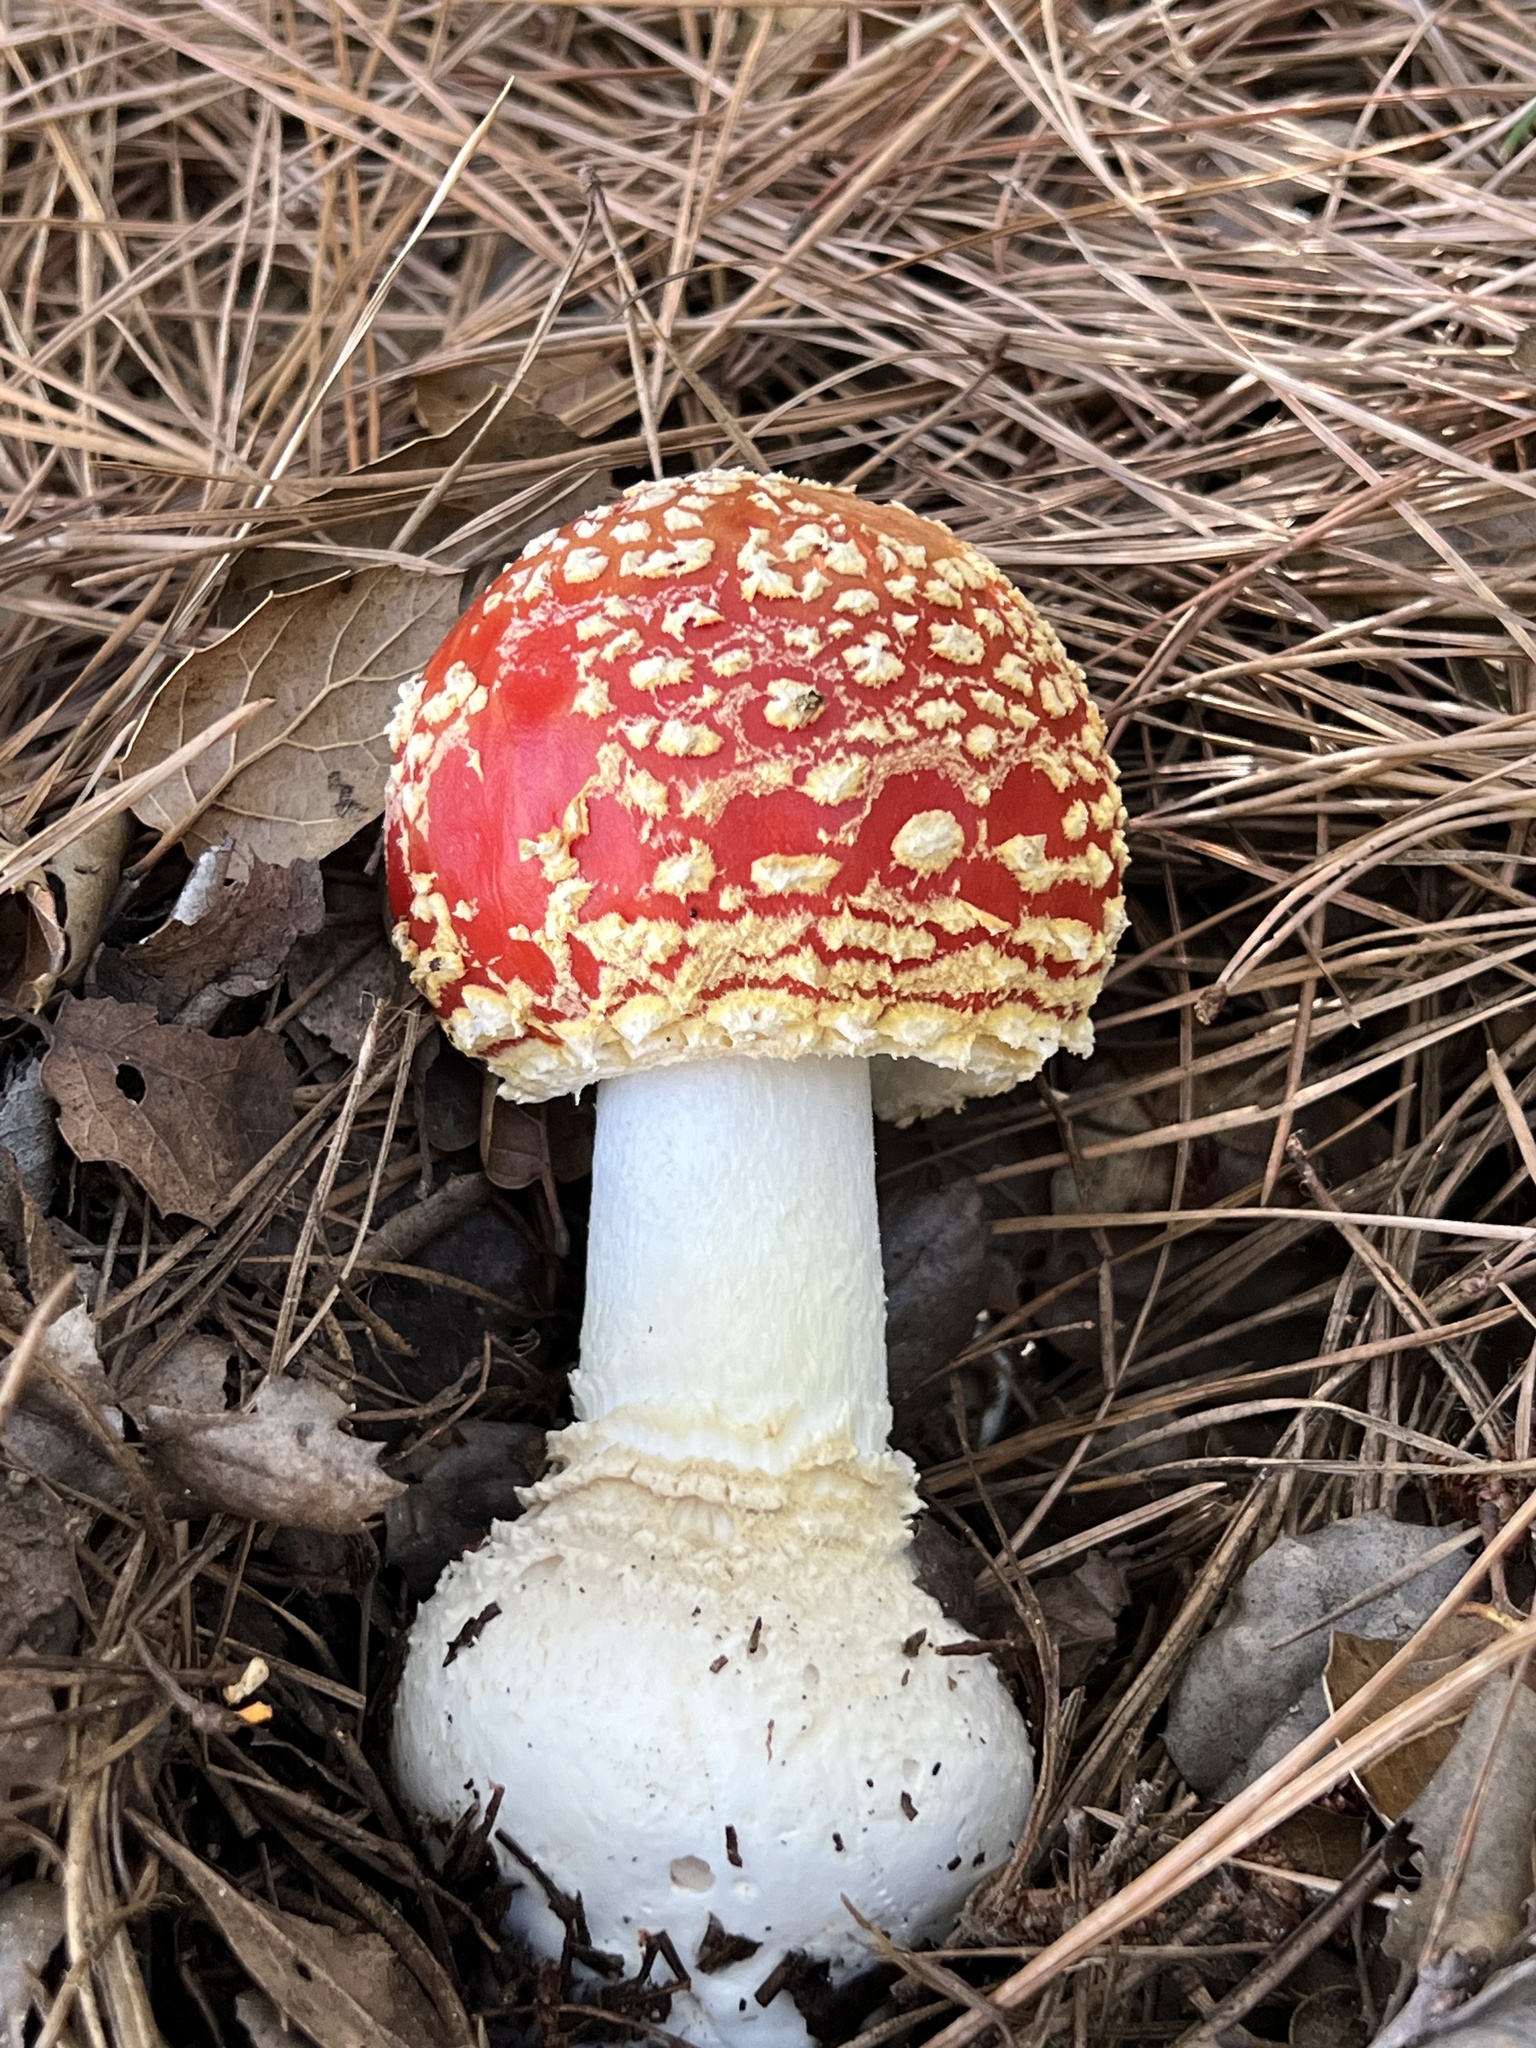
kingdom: Fungi
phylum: Basidiomycota
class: Agaricomycetes
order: Agaricales
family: Amanitaceae
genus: Amanita
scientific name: Amanita muscaria
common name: Fly agaric
